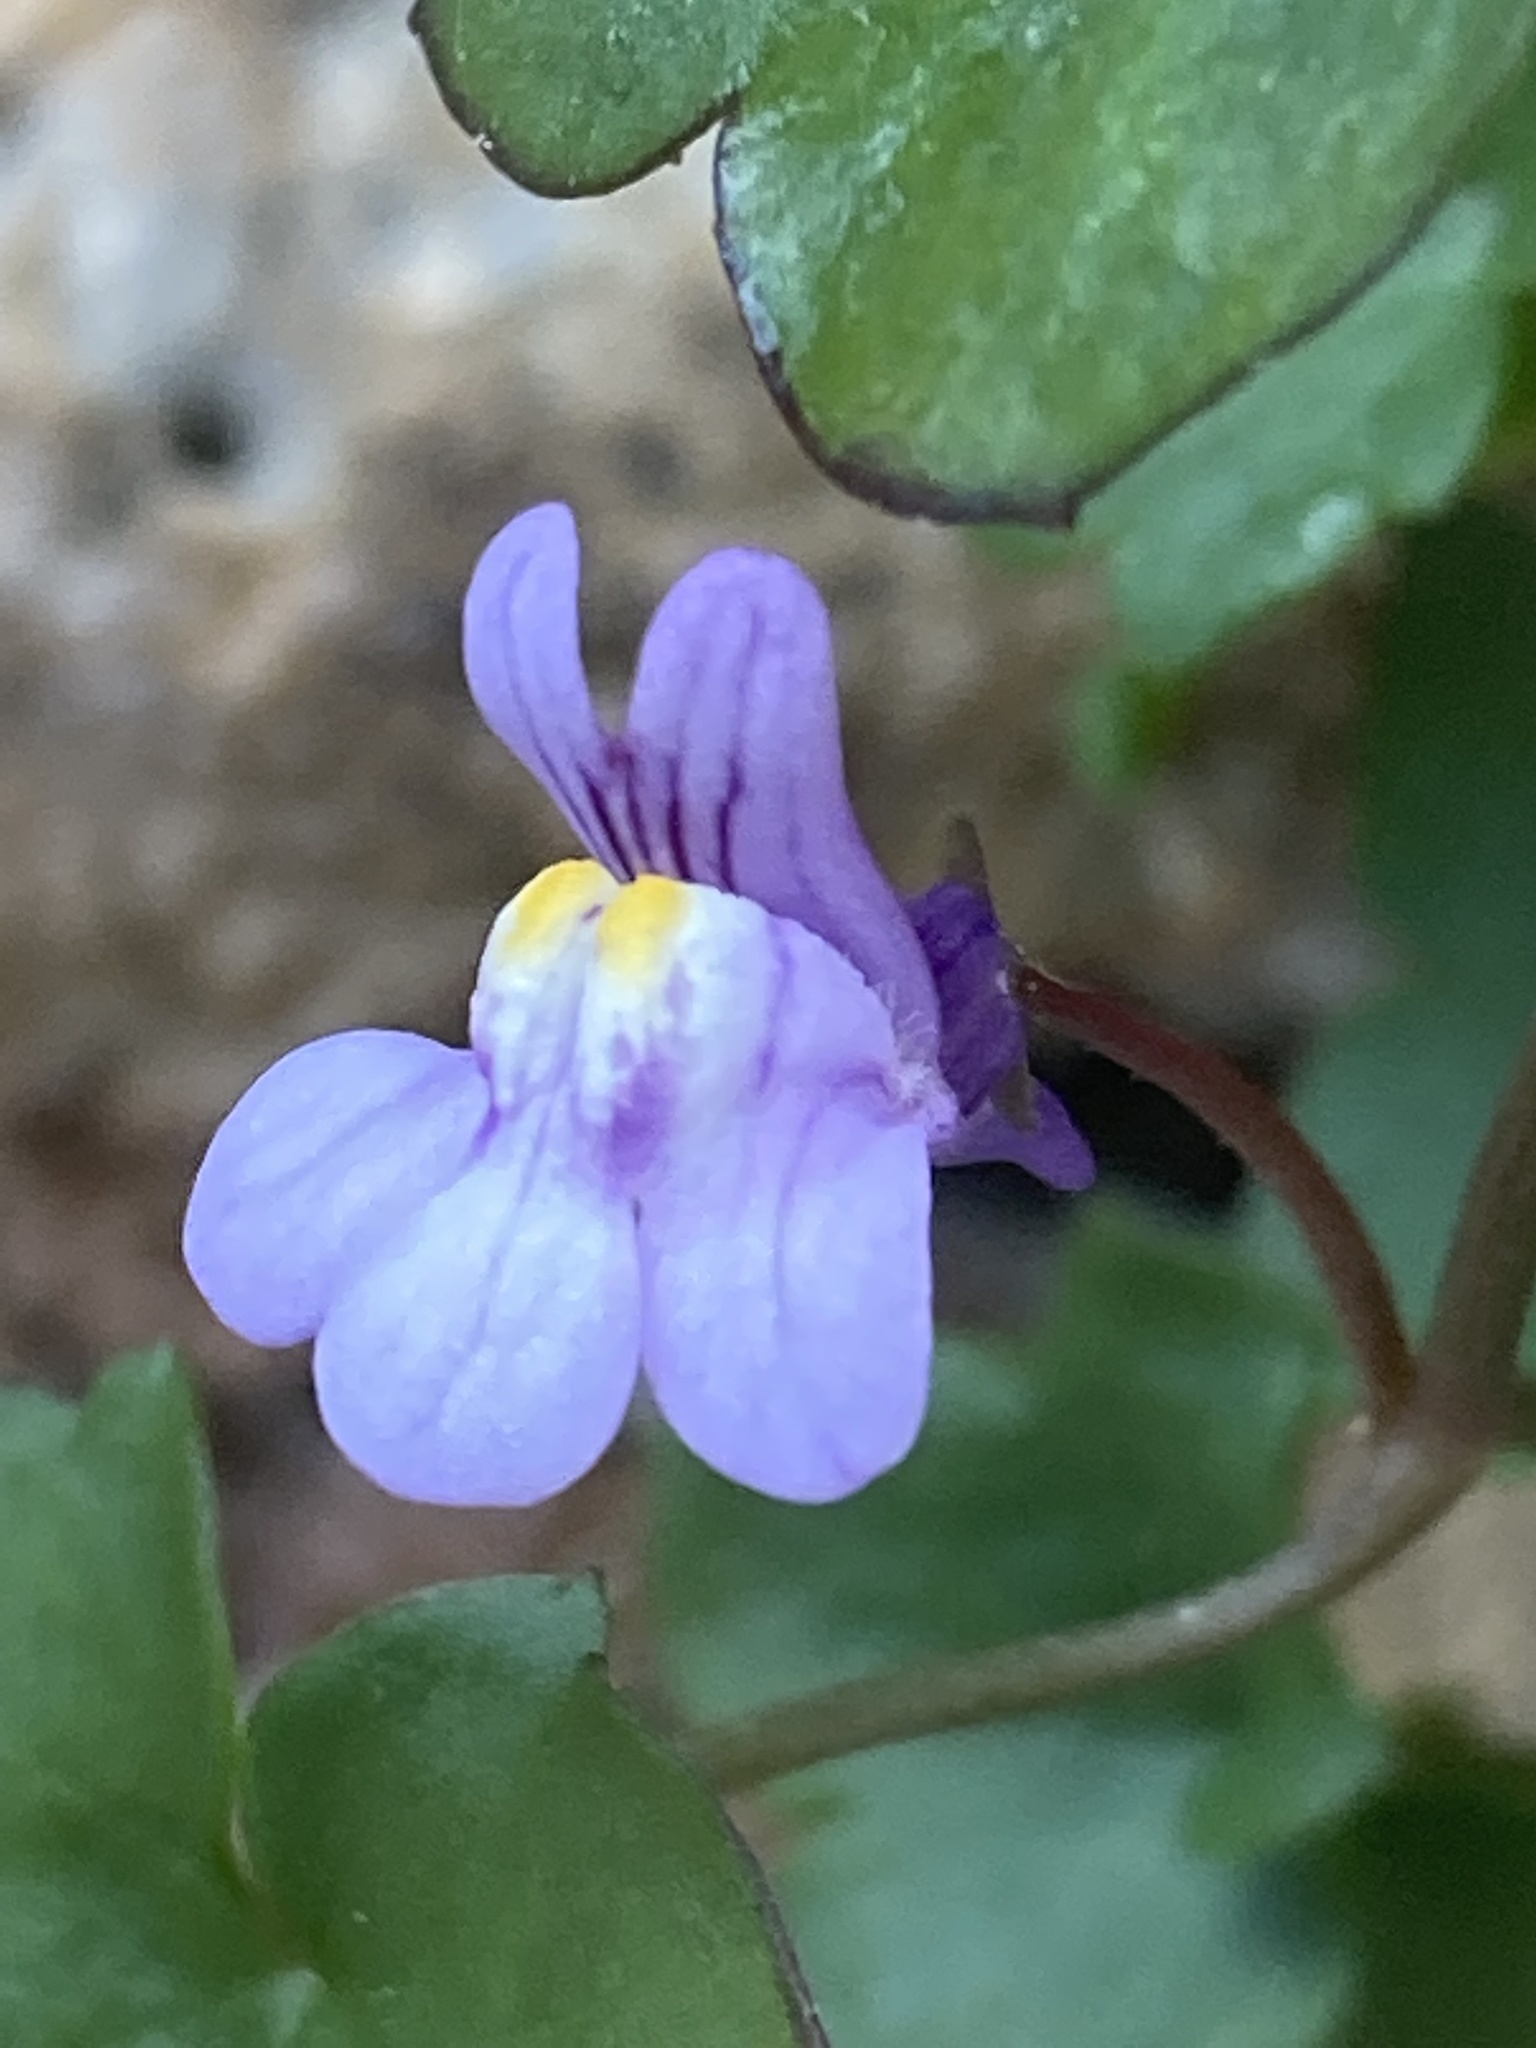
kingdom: Plantae
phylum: Tracheophyta
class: Magnoliopsida
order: Lamiales
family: Plantaginaceae
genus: Cymbalaria
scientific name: Cymbalaria muralis
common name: Ivy-leaved toadflax
